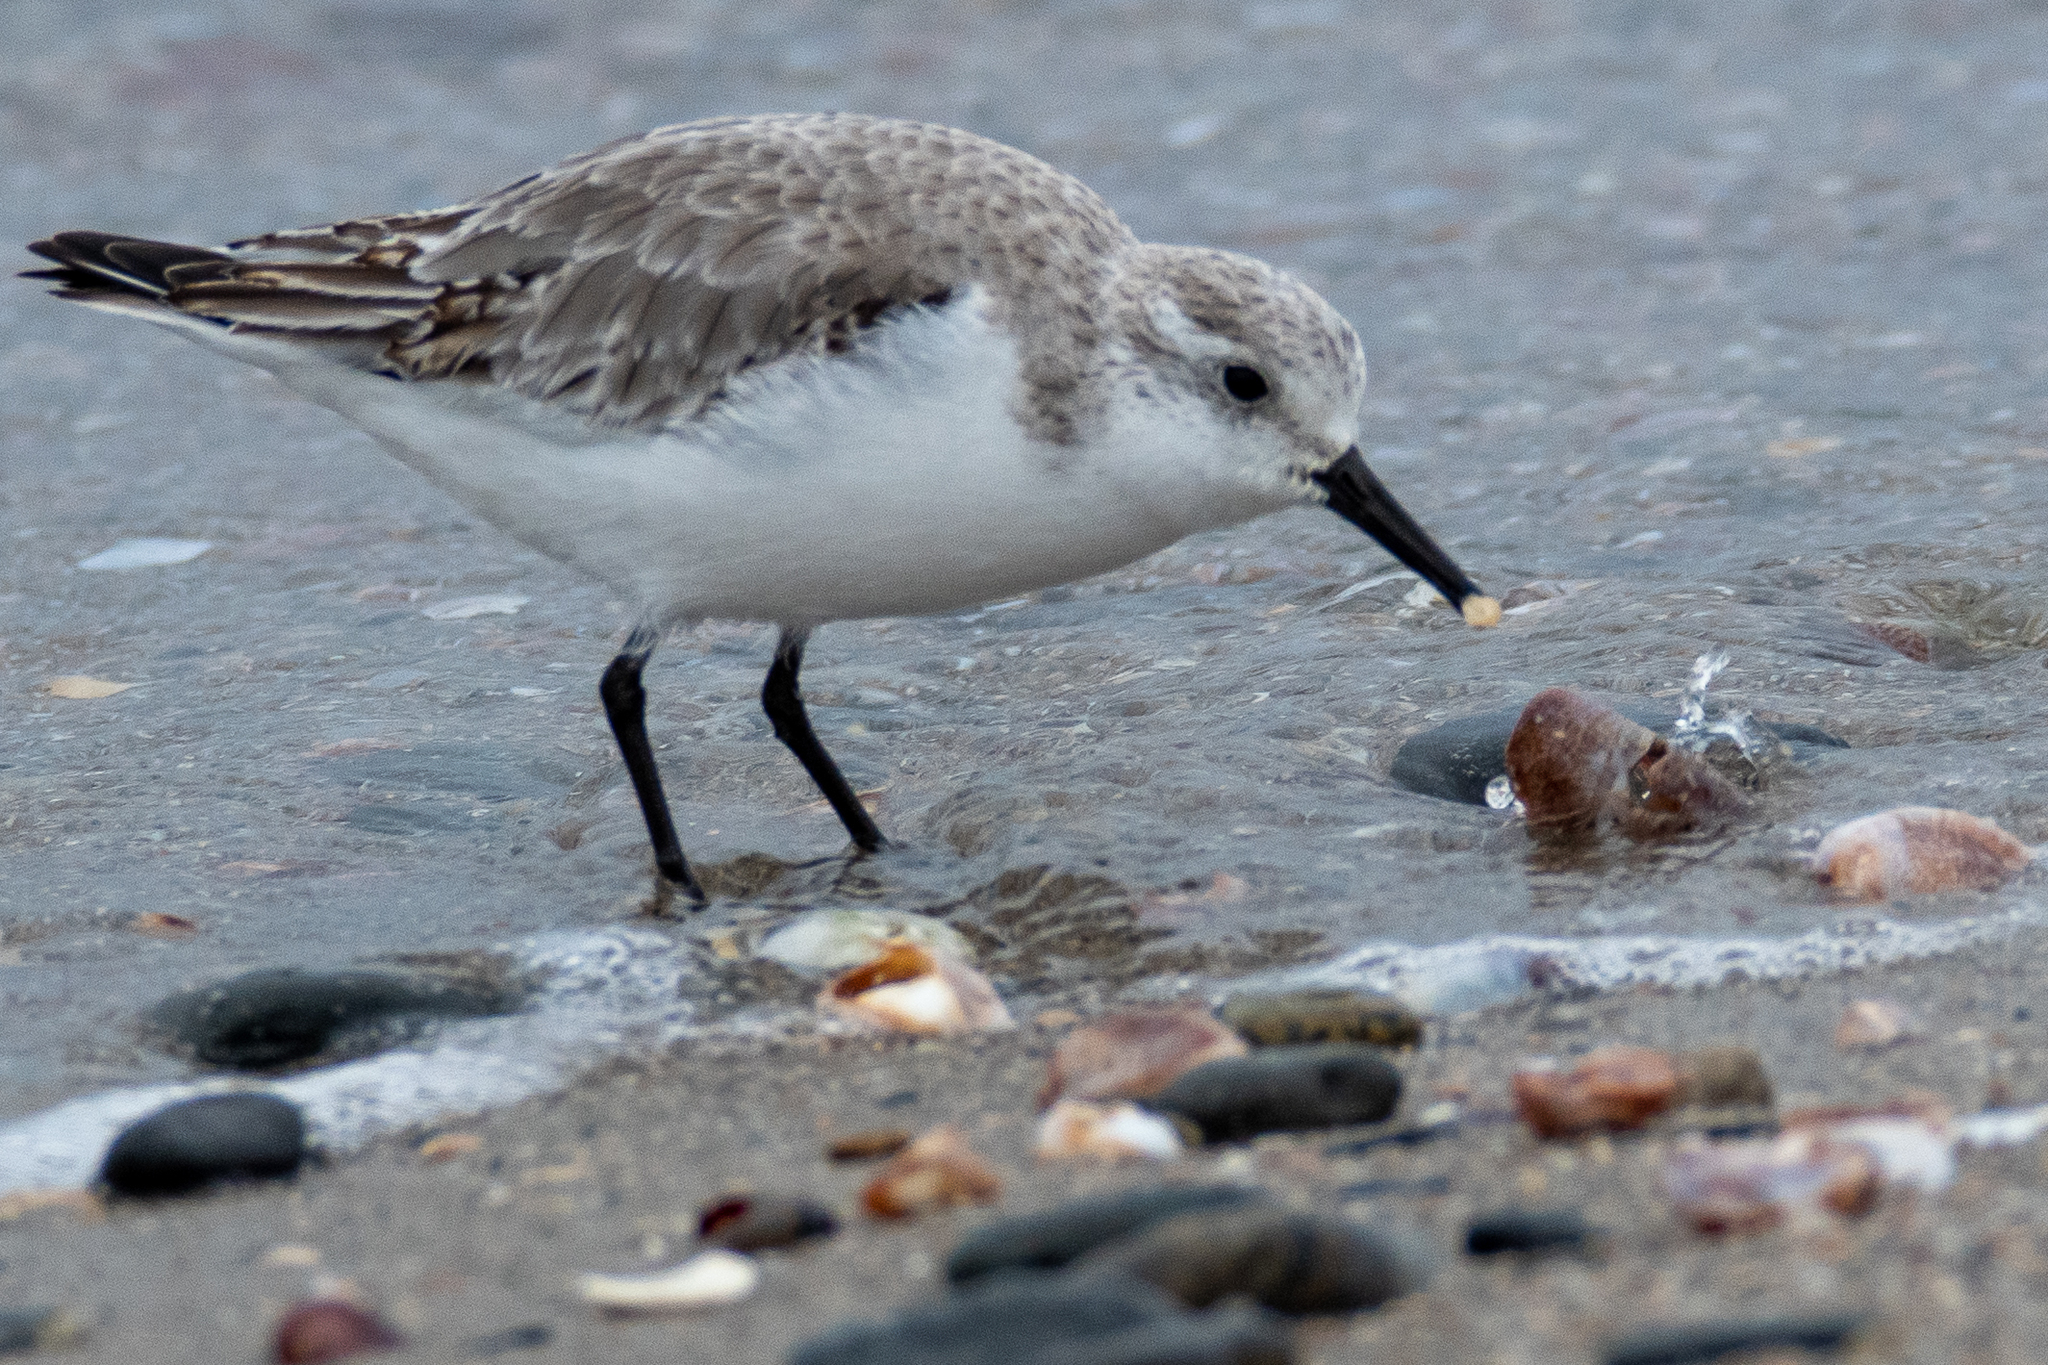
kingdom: Animalia
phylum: Mollusca
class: Gastropoda
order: Littorinimorpha
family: Calyptraeidae
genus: Crepidula
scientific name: Crepidula fornicata
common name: Slipper limpet
